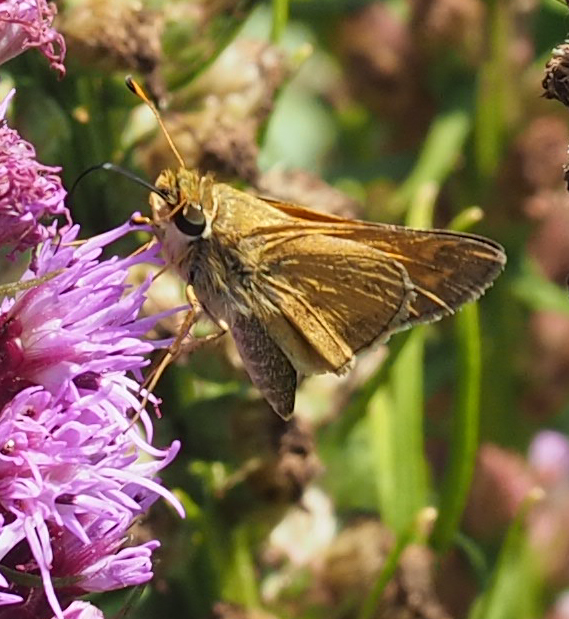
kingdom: Animalia
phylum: Arthropoda
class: Insecta
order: Lepidoptera
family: Hesperiidae
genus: Atalopedes
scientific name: Atalopedes
